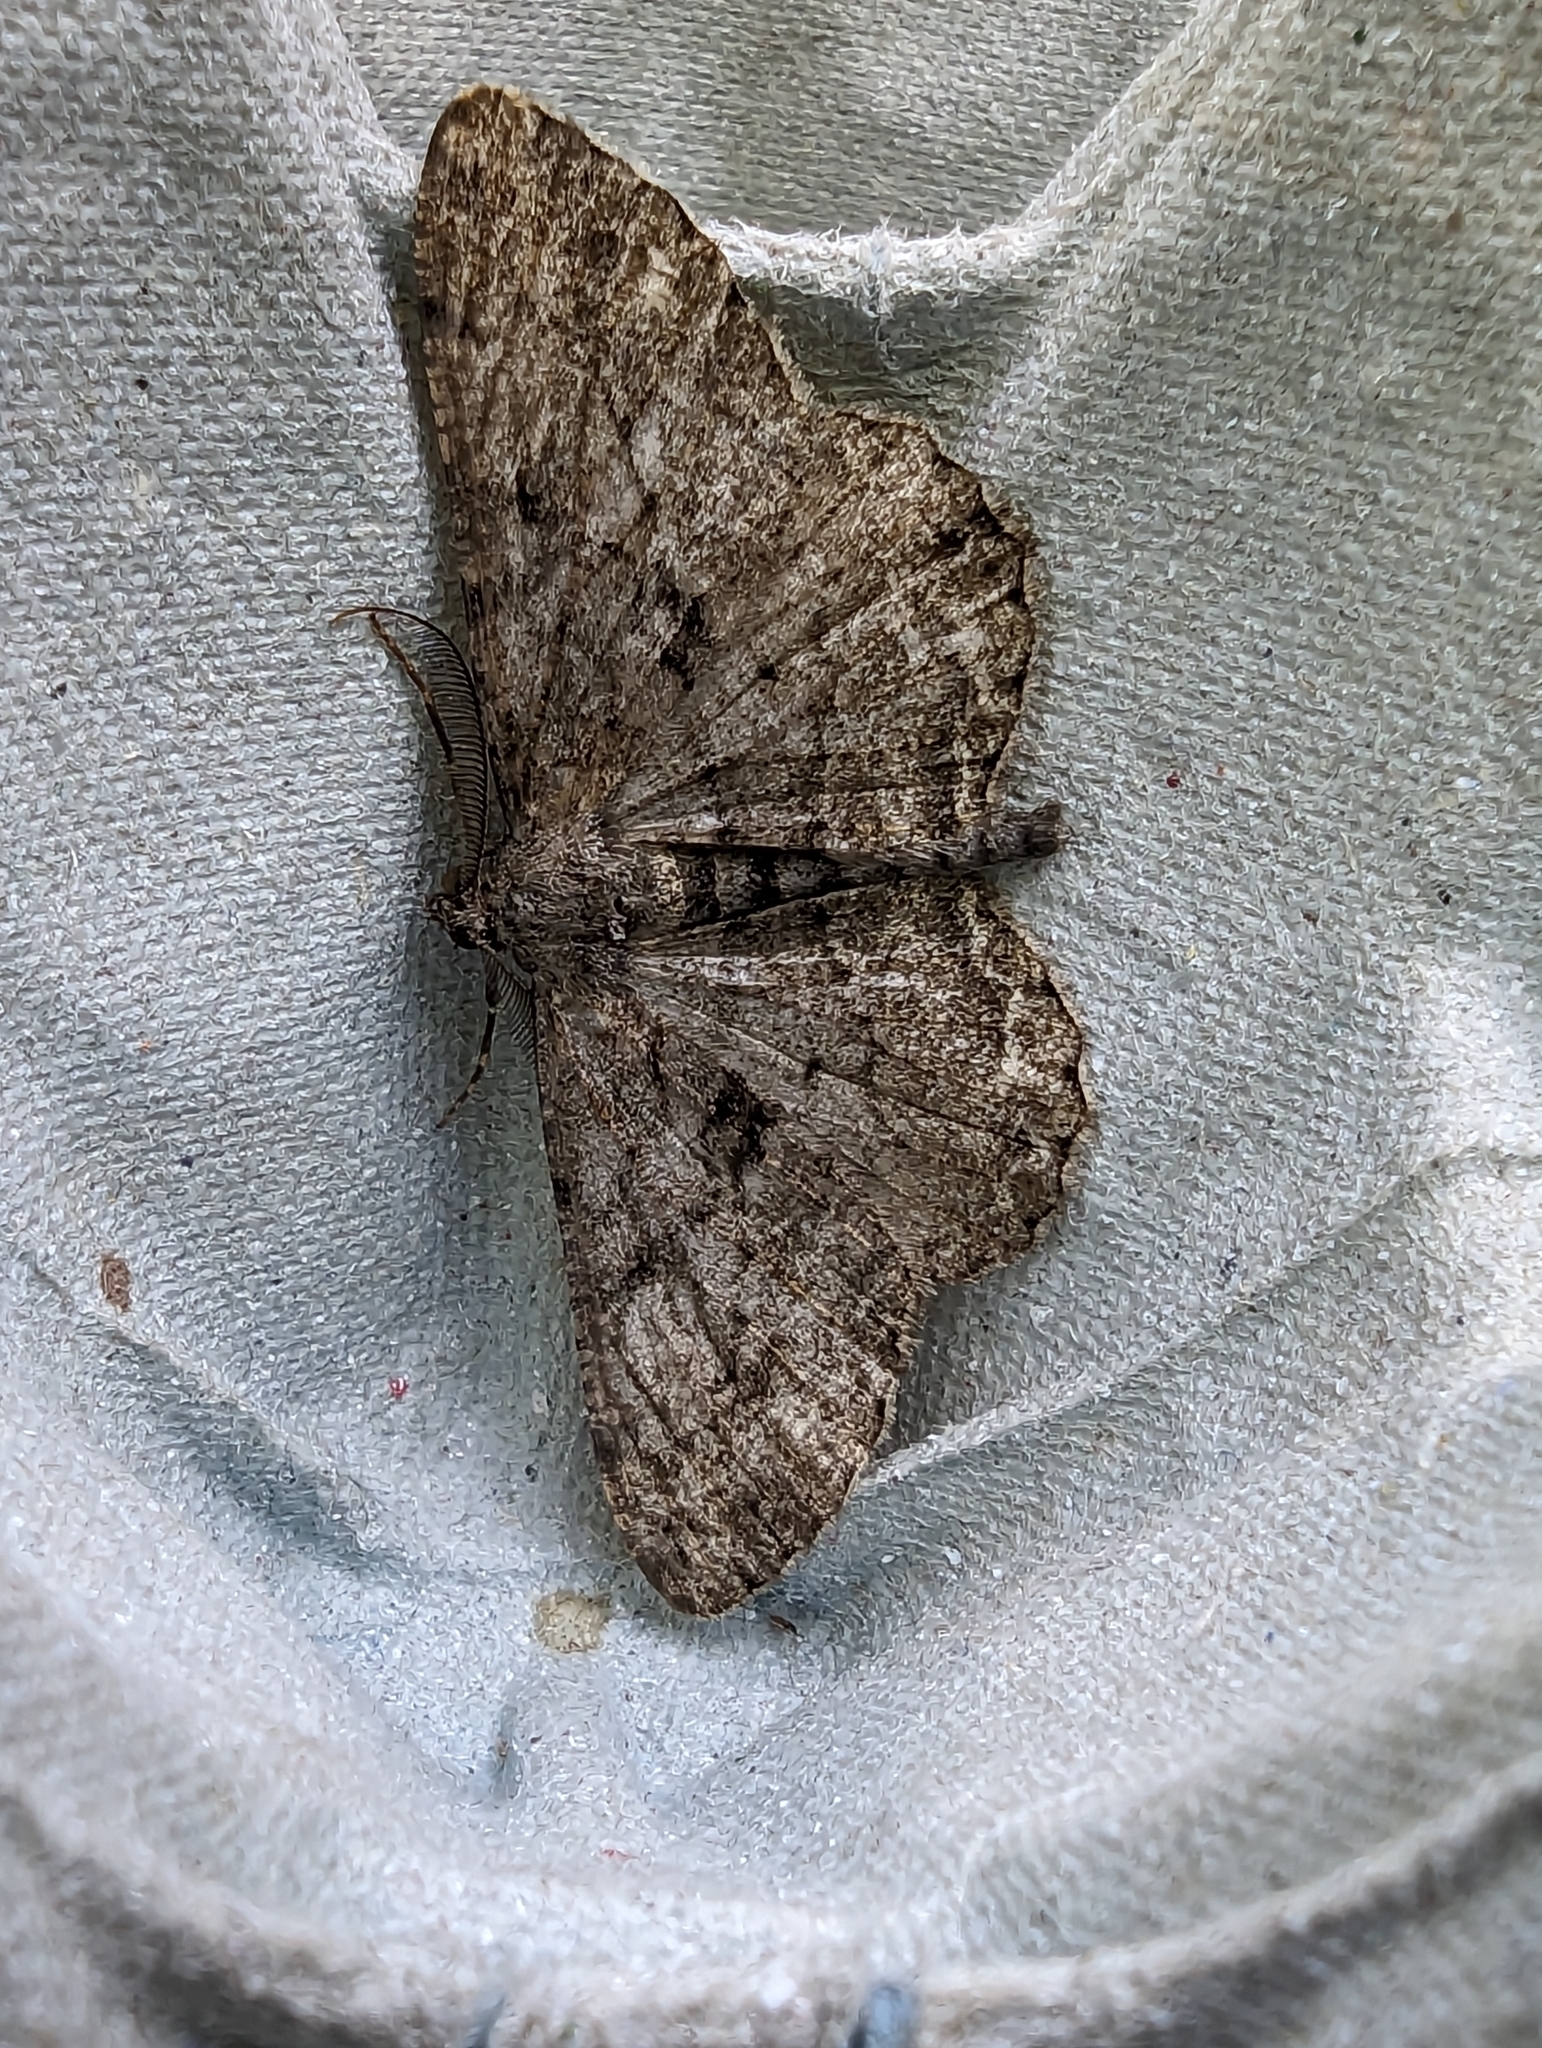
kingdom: Animalia
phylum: Arthropoda
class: Insecta
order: Lepidoptera
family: Geometridae
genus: Peribatodes
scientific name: Peribatodes rhomboidaria
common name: Willow beauty
